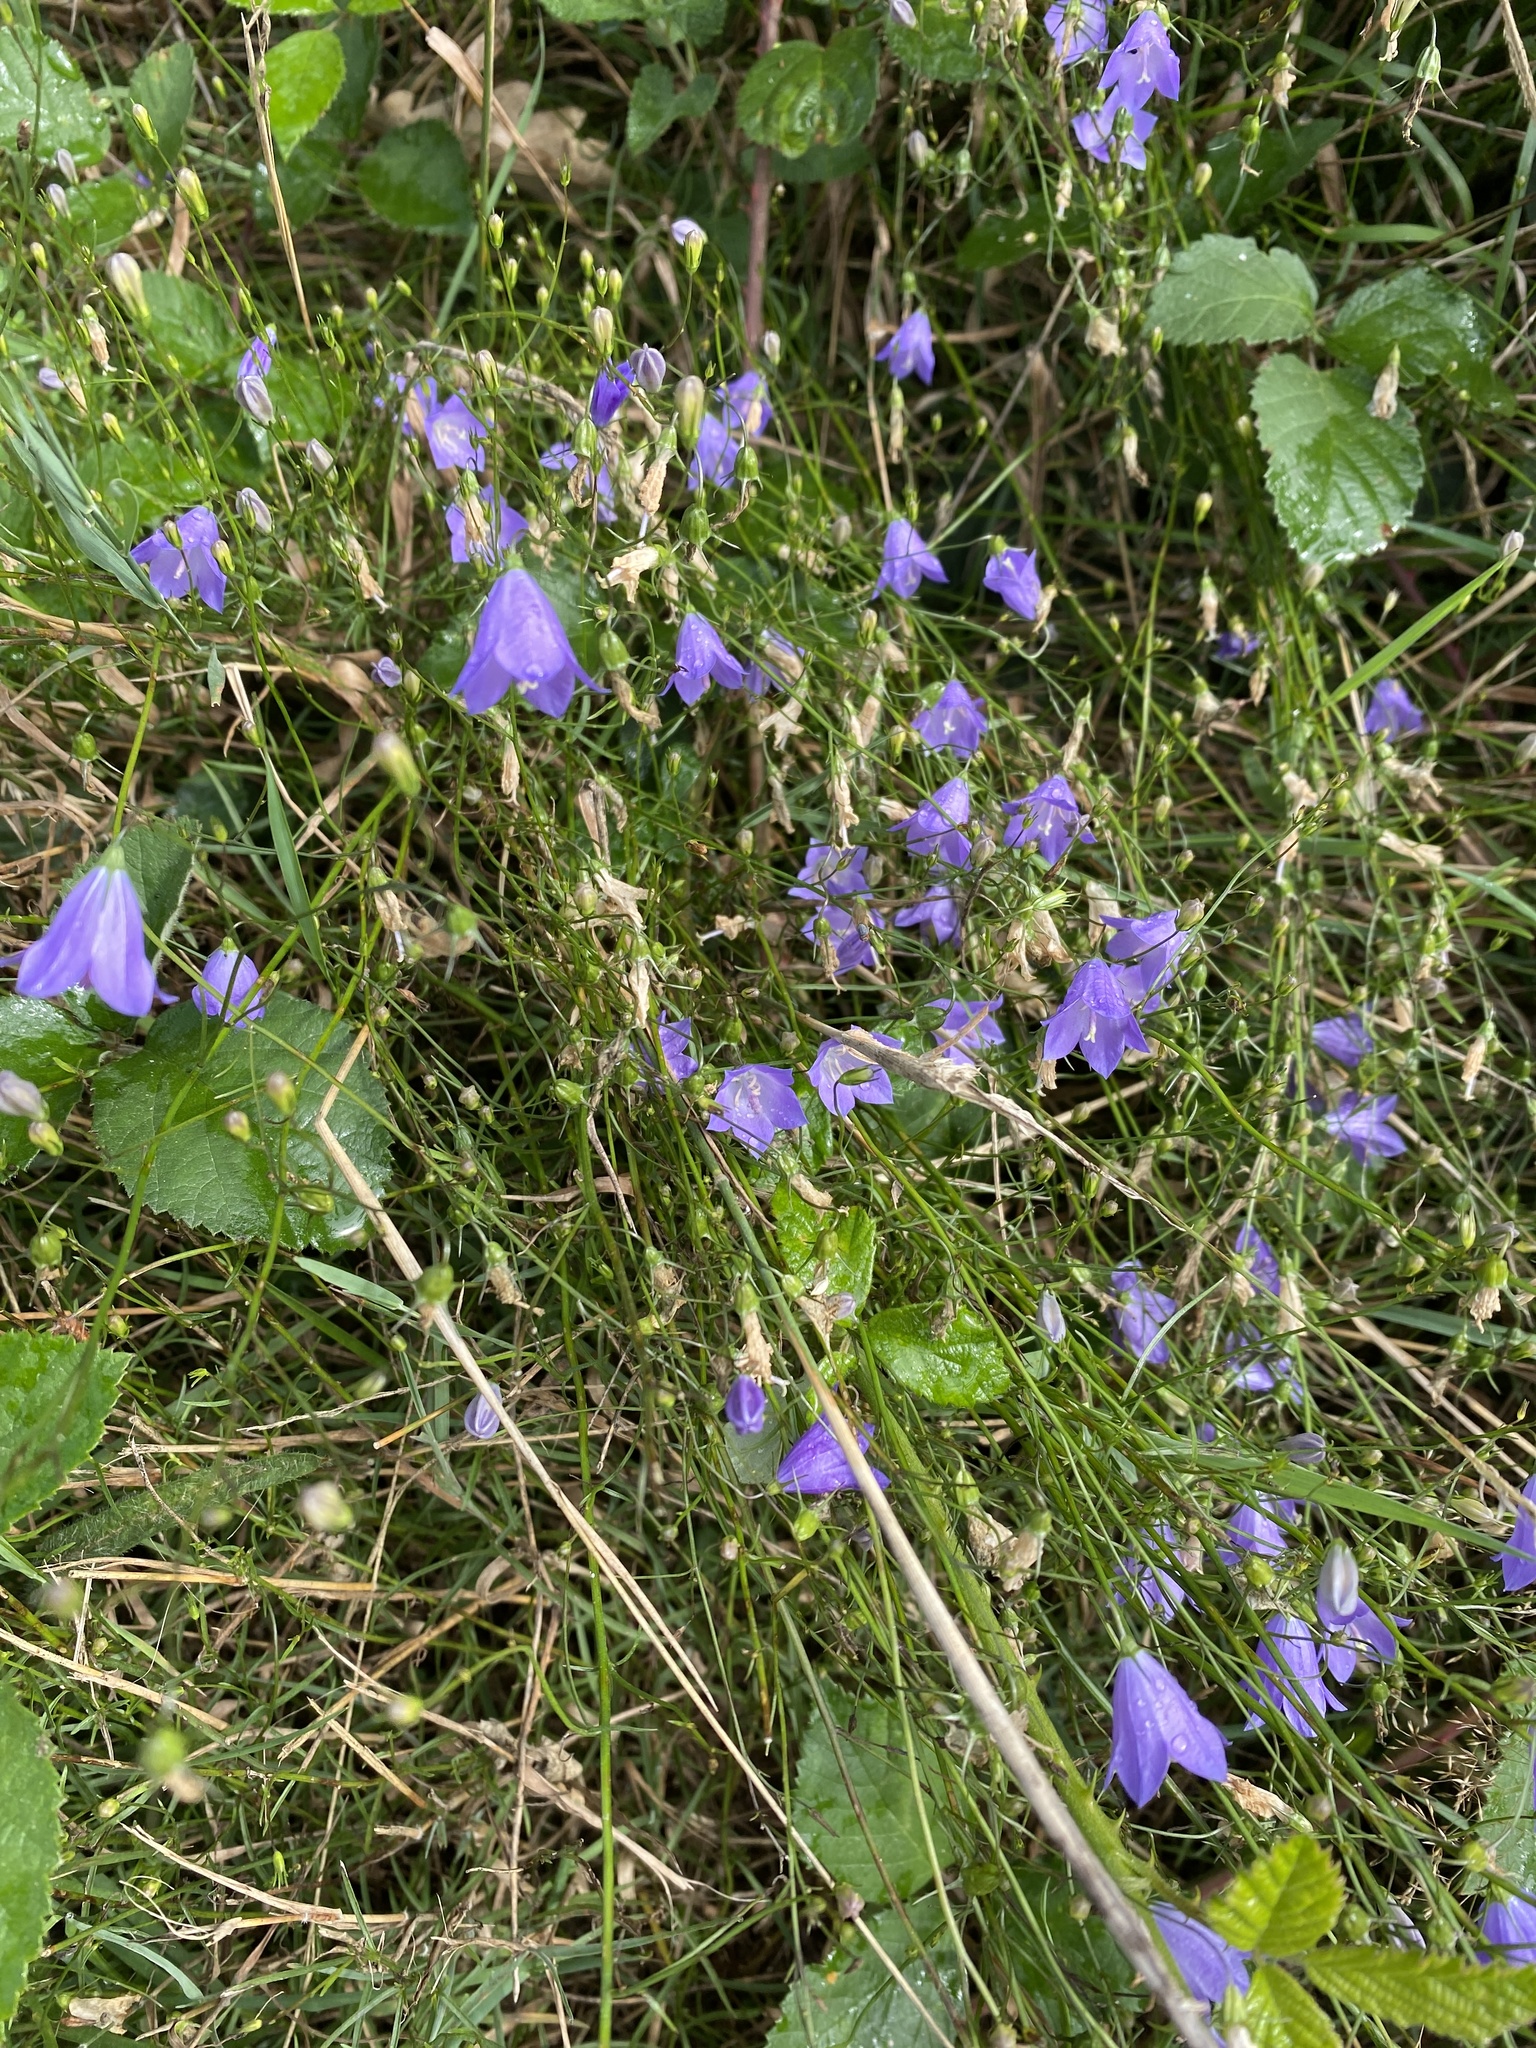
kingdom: Plantae
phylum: Tracheophyta
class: Magnoliopsida
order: Asterales
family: Campanulaceae
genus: Campanula
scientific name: Campanula rotundifolia
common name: Harebell
